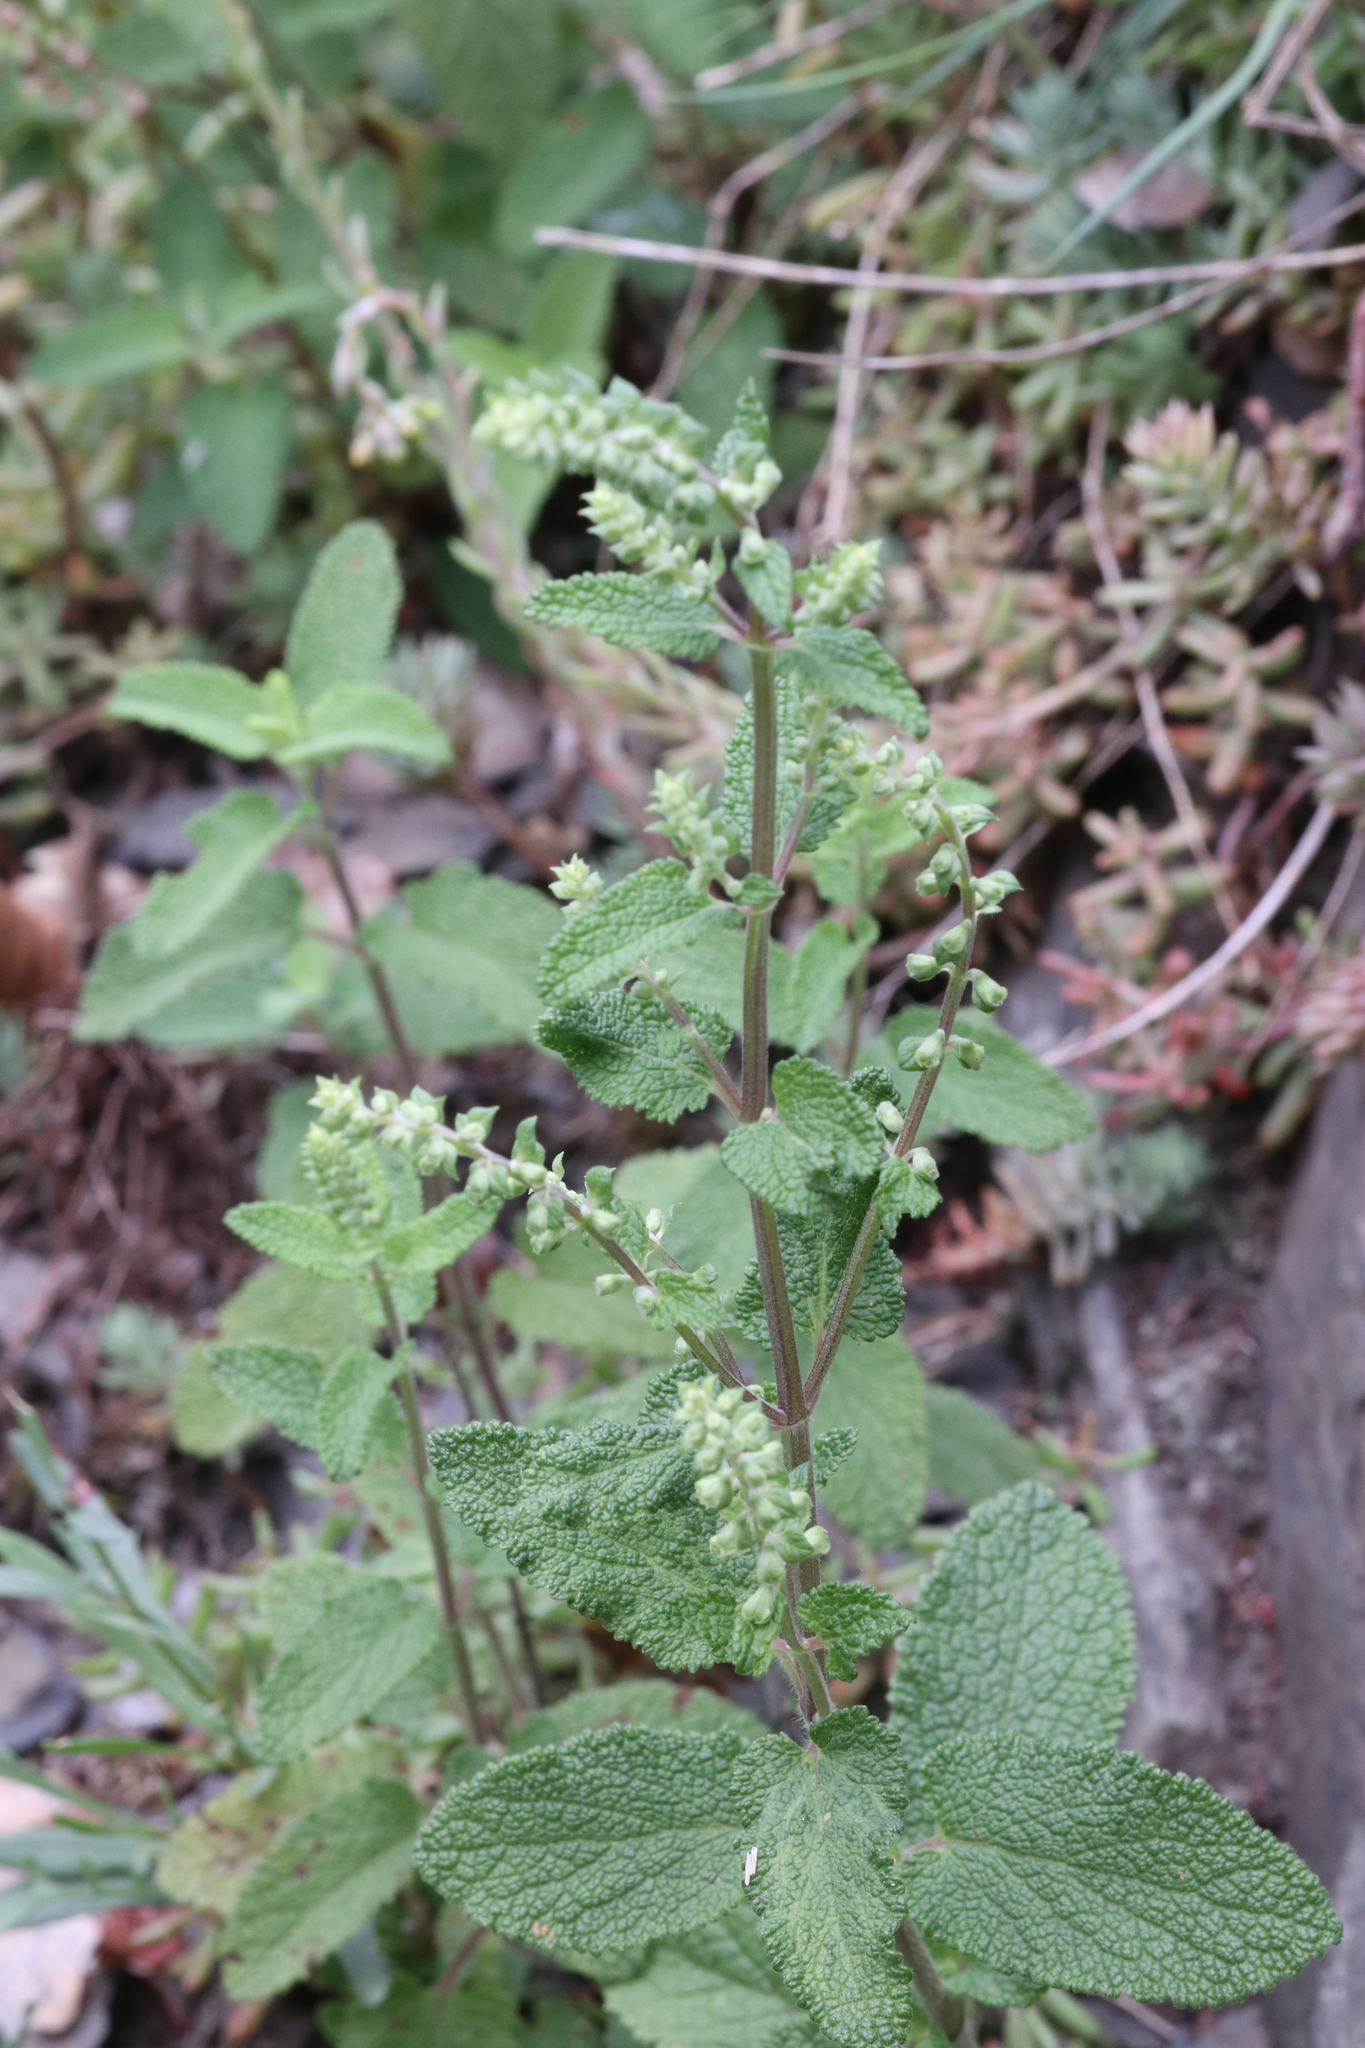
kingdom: Plantae
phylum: Tracheophyta
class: Magnoliopsida
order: Lamiales
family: Lamiaceae
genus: Teucrium
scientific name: Teucrium scorodonia
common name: Woodland germander
